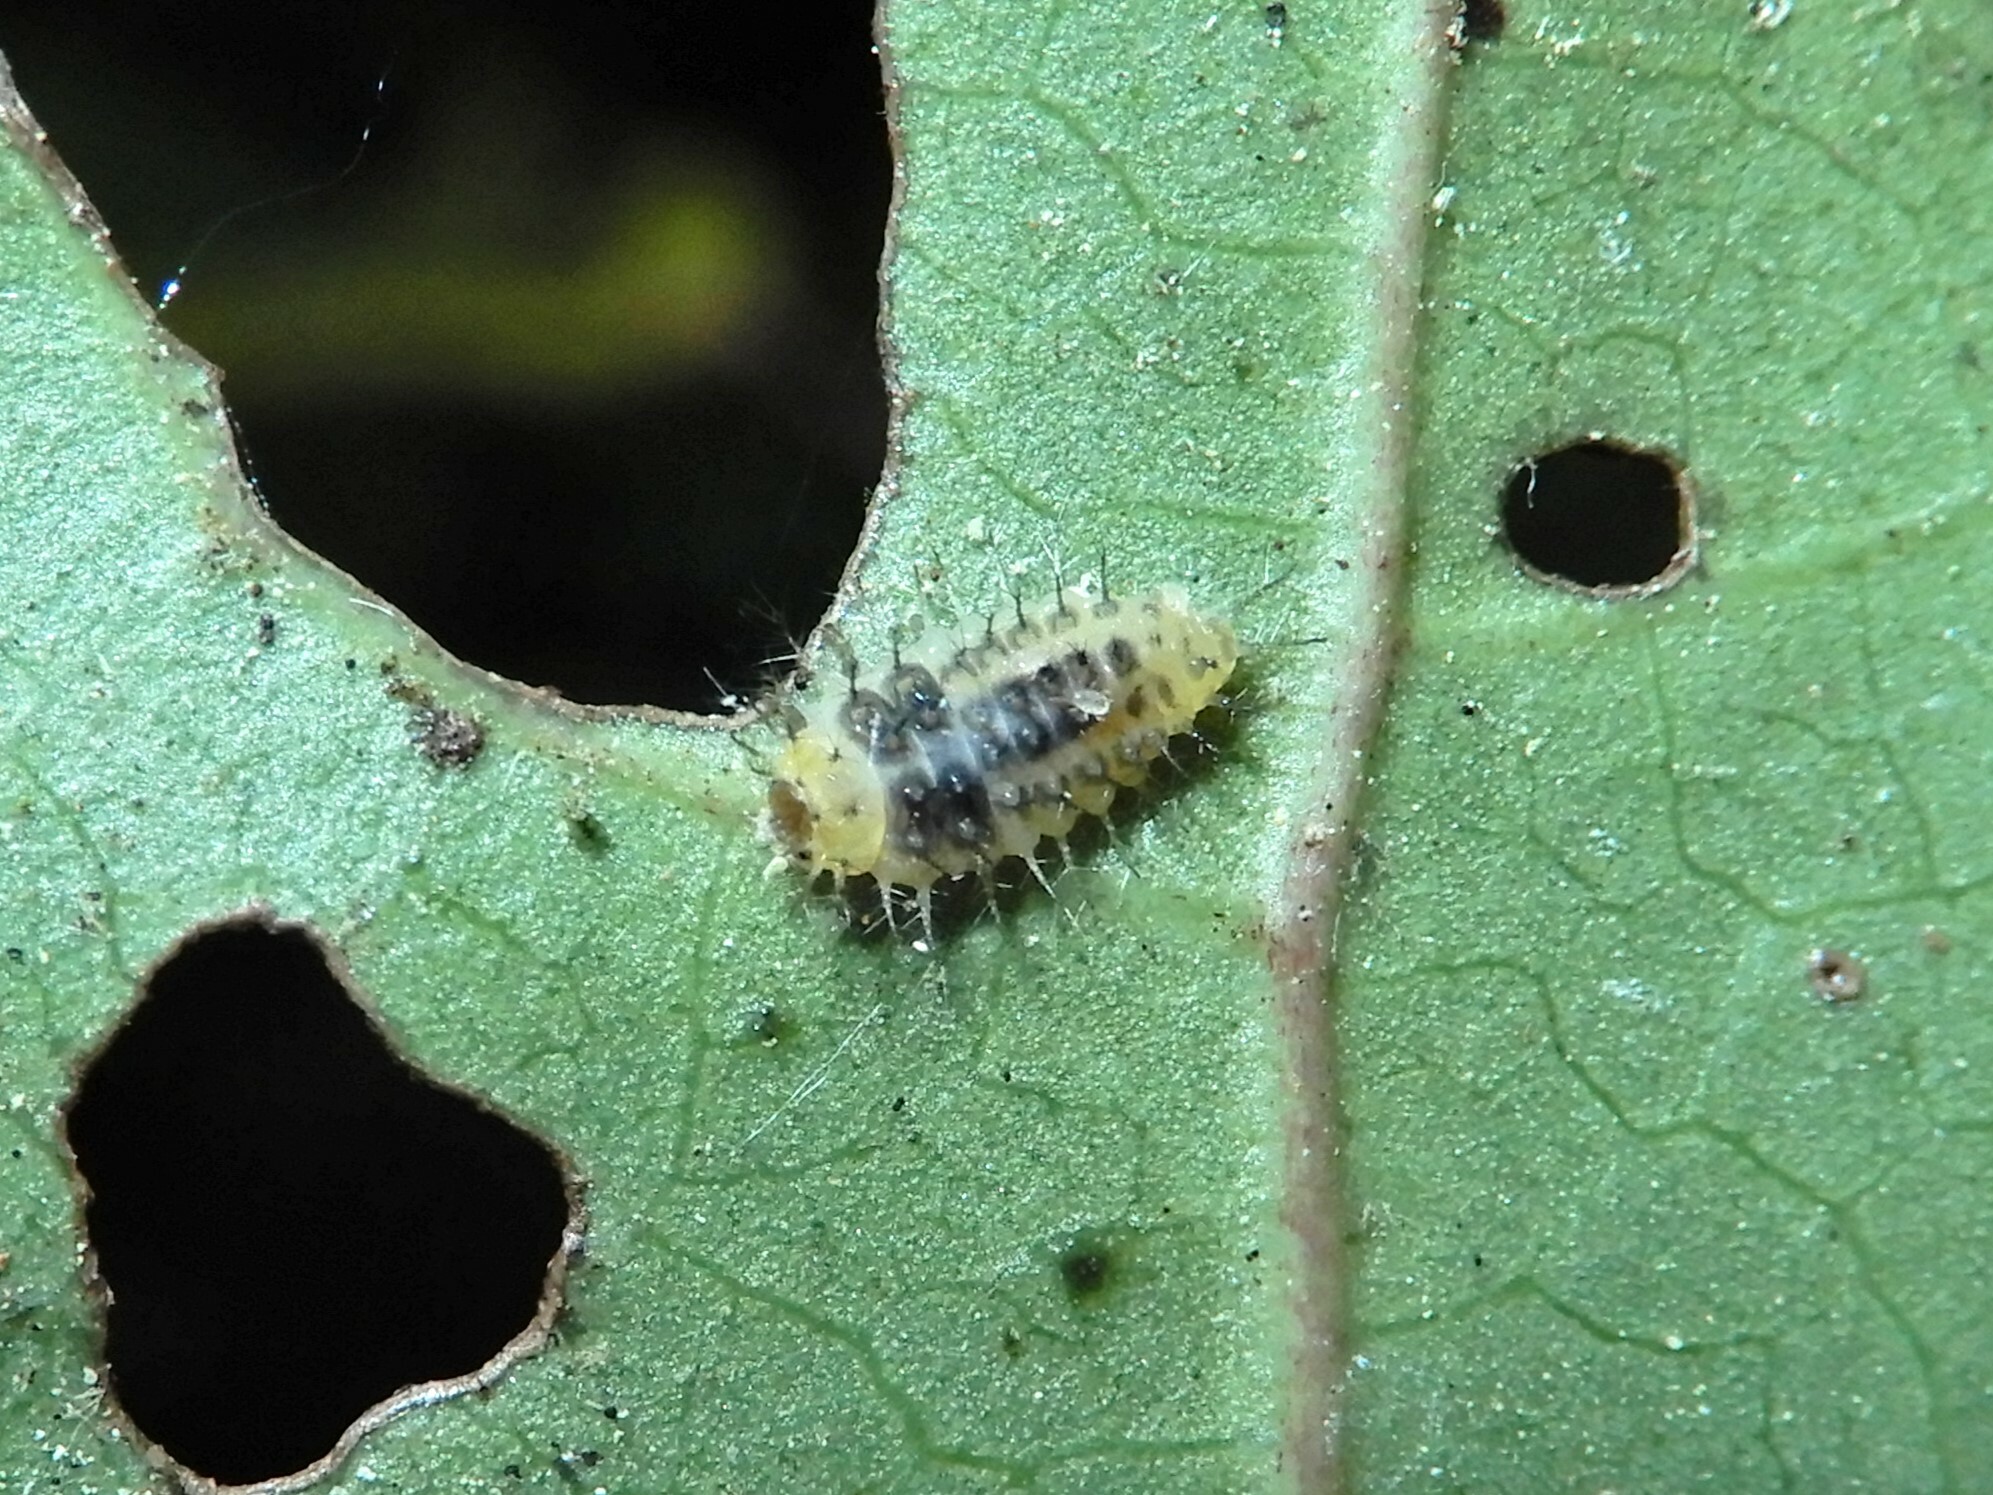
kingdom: Animalia
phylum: Arthropoda
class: Insecta
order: Coleoptera
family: Coccinellidae
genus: Halmus
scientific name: Halmus chalybeus
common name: Steel blue ladybird beetle
